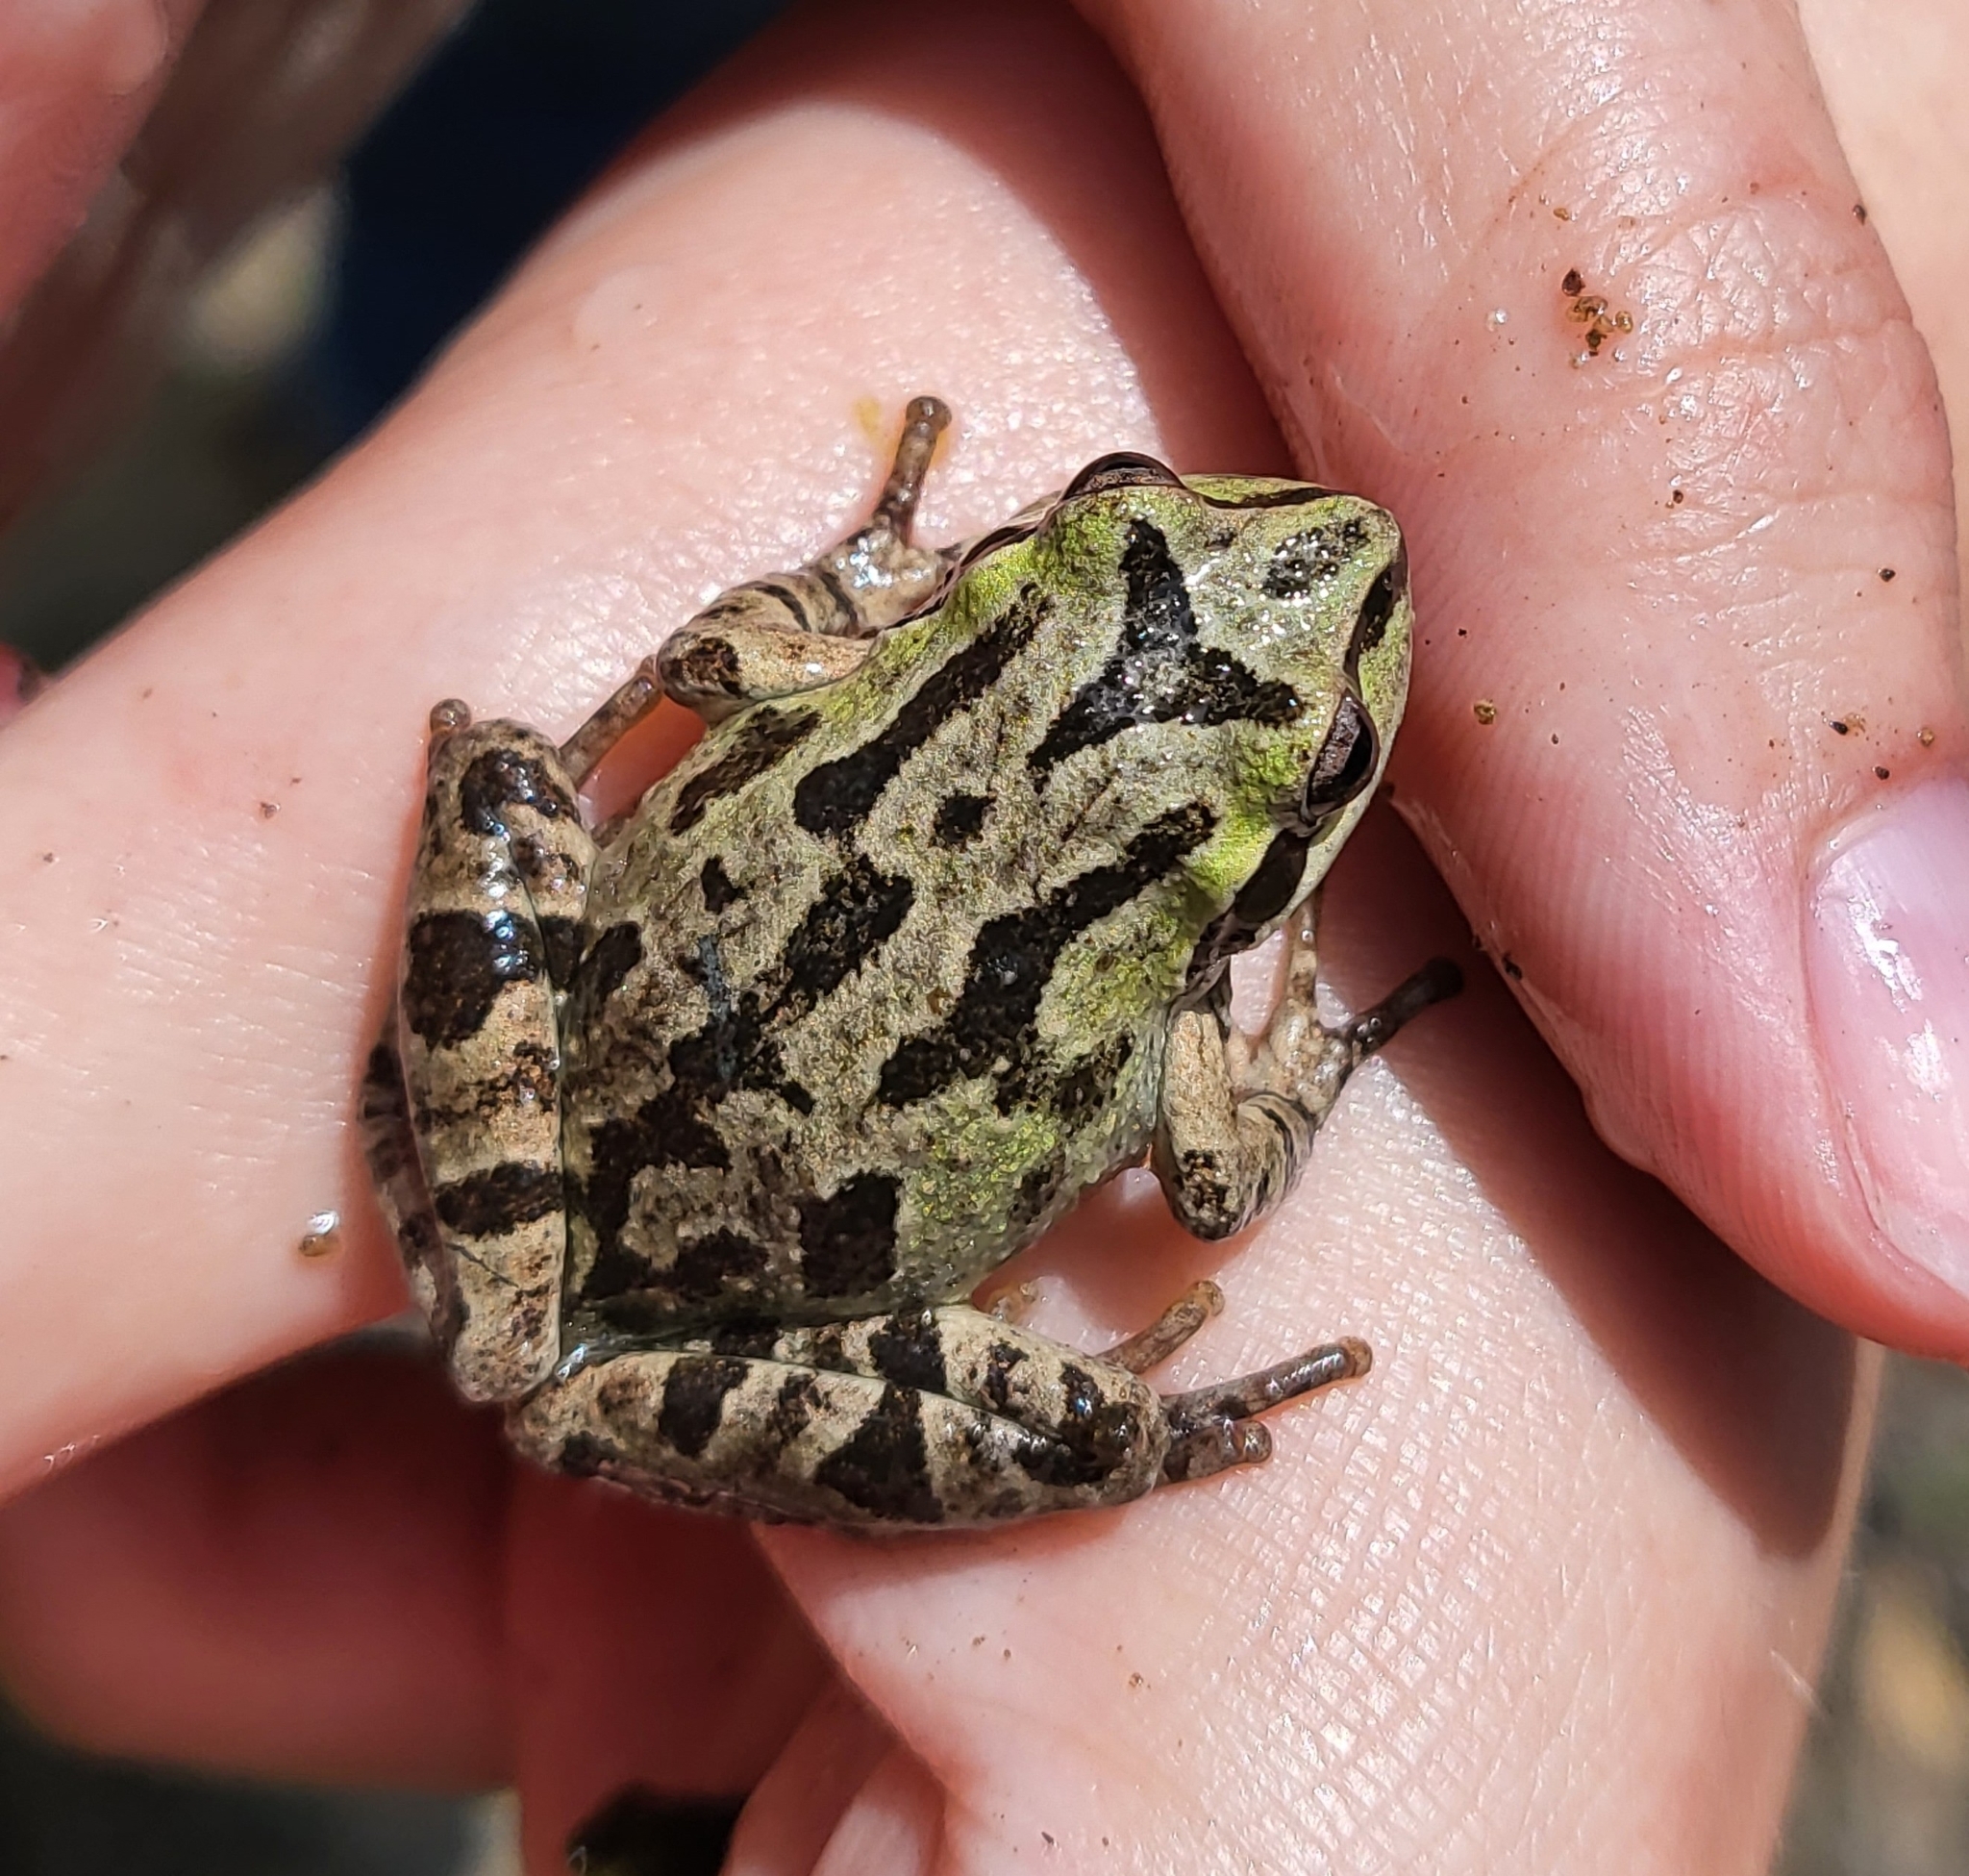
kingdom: Animalia
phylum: Chordata
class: Amphibia
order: Anura
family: Hylidae
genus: Pseudacris
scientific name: Pseudacris regilla
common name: Pacific chorus frog
